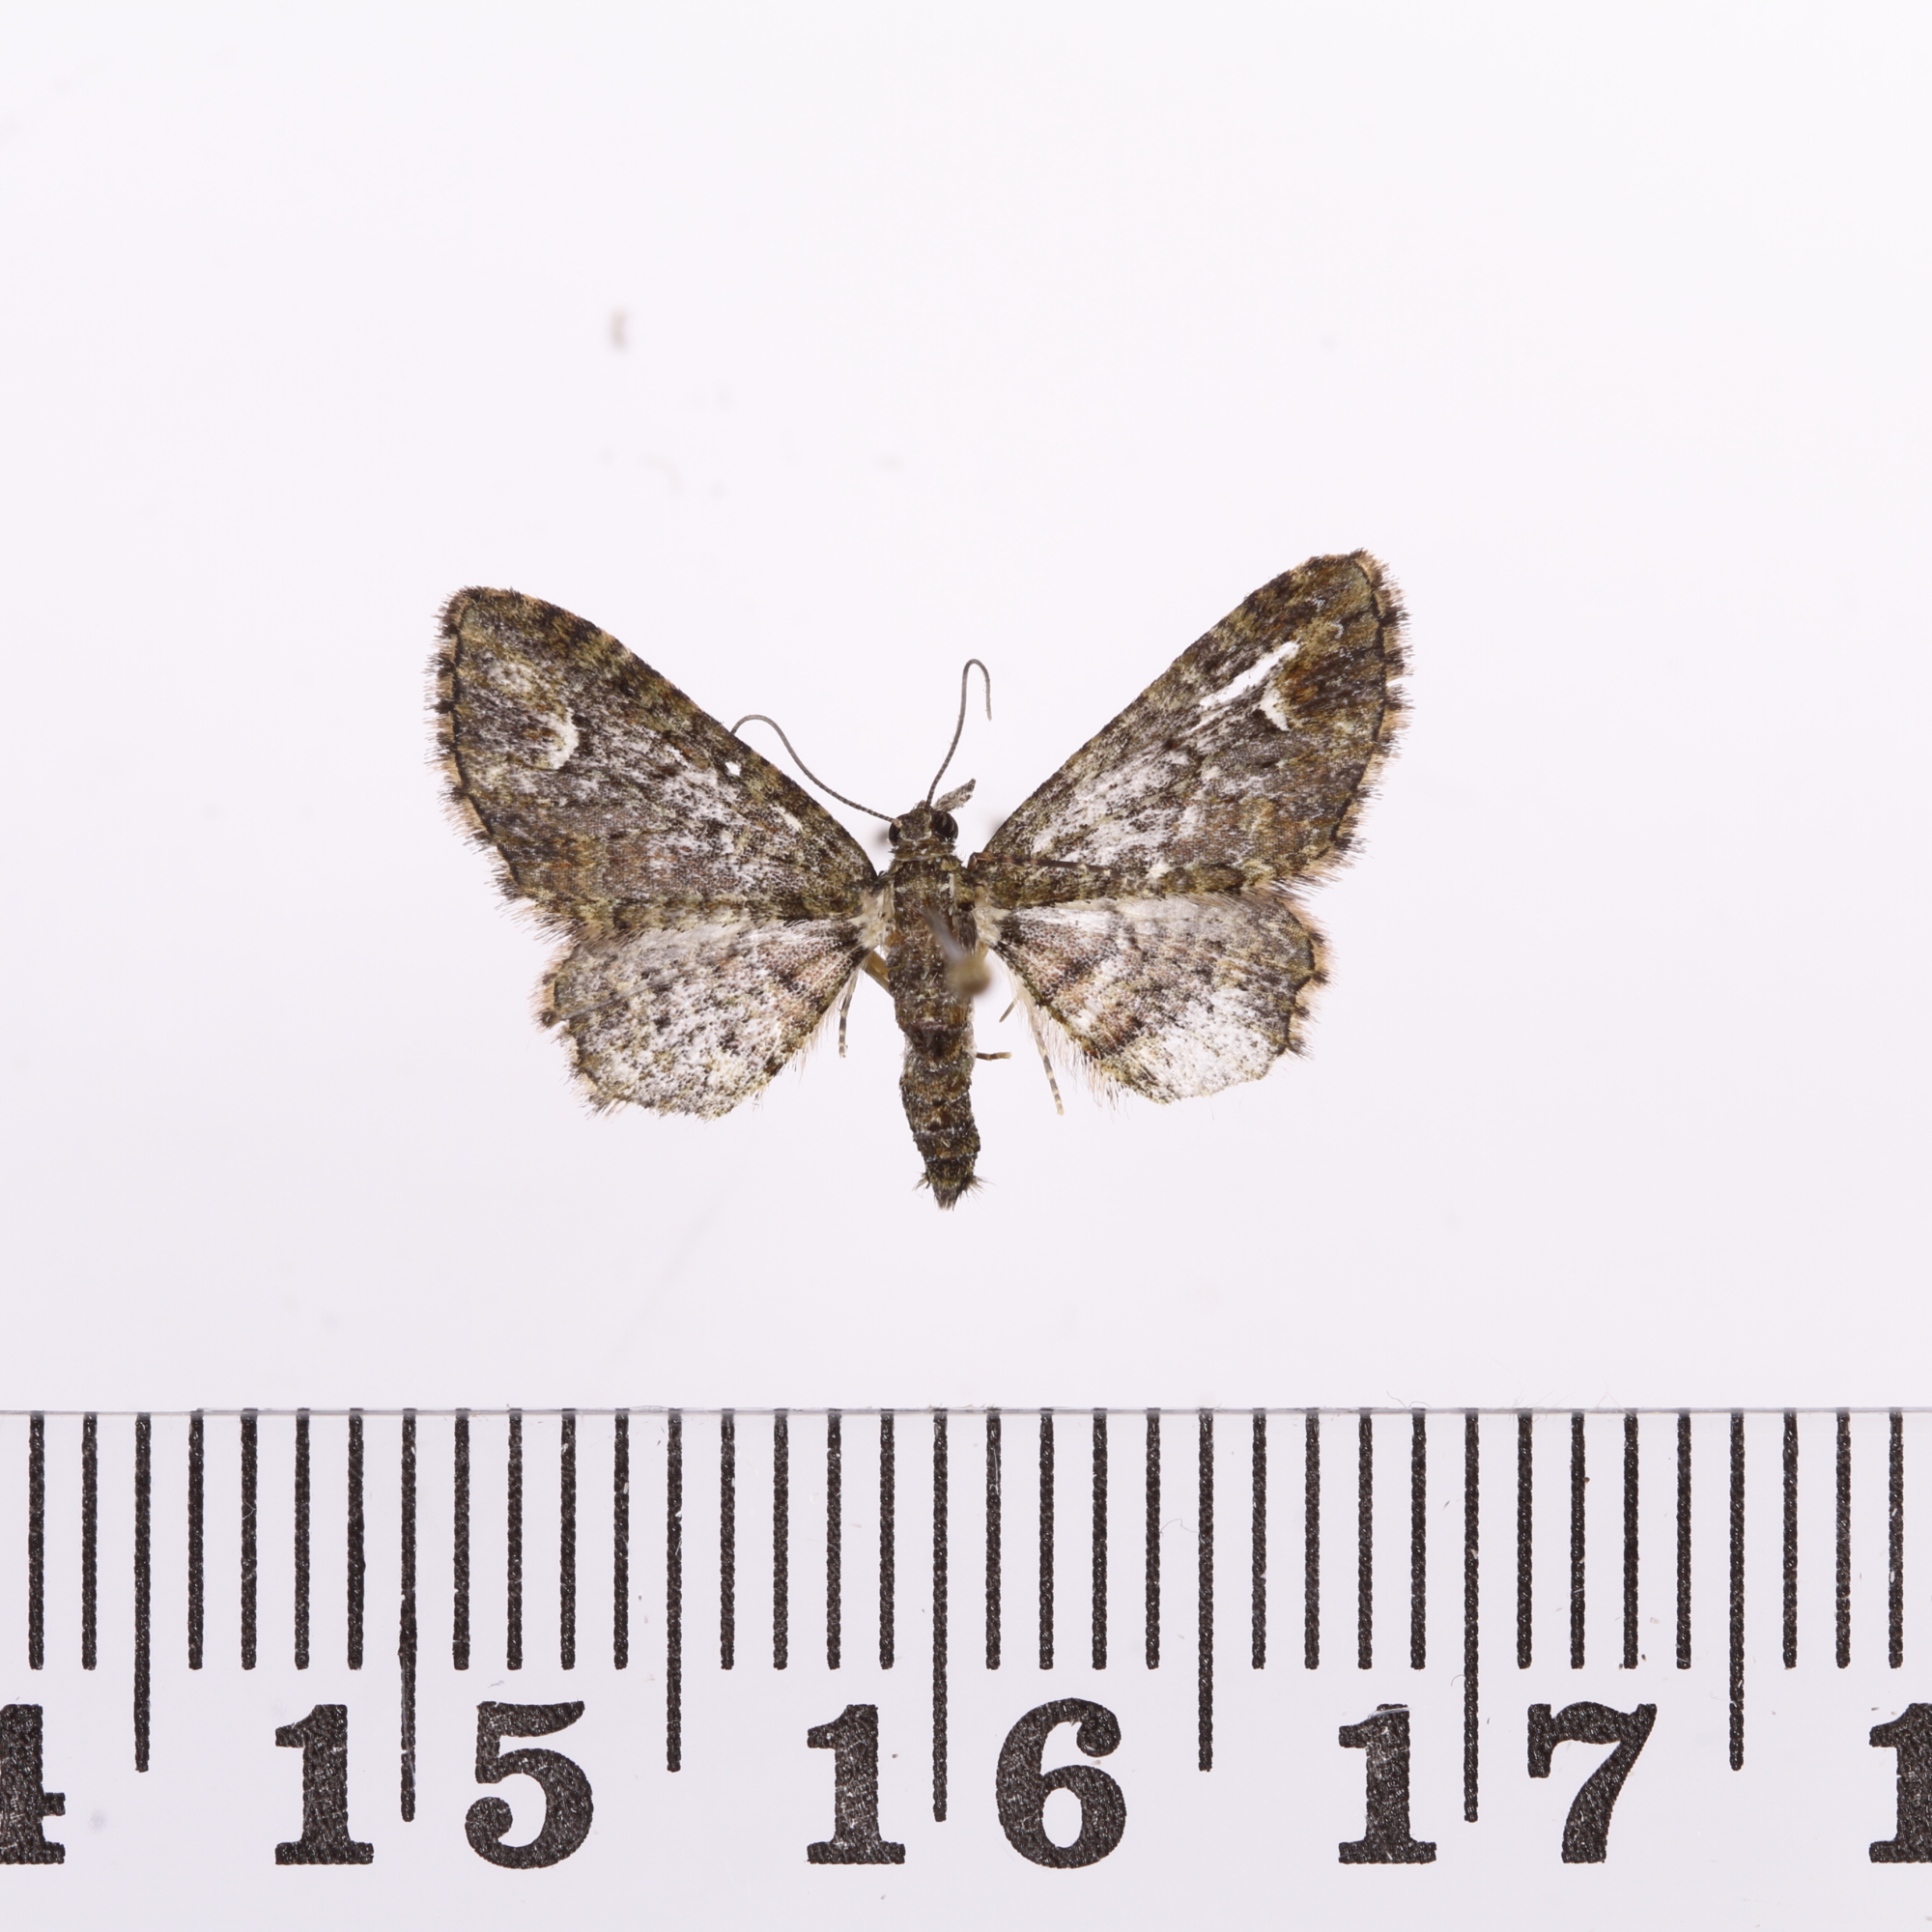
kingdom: Animalia
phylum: Arthropoda
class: Insecta
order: Lepidoptera
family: Geometridae
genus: Pasiphilodes
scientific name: Pasiphilodes testulata
